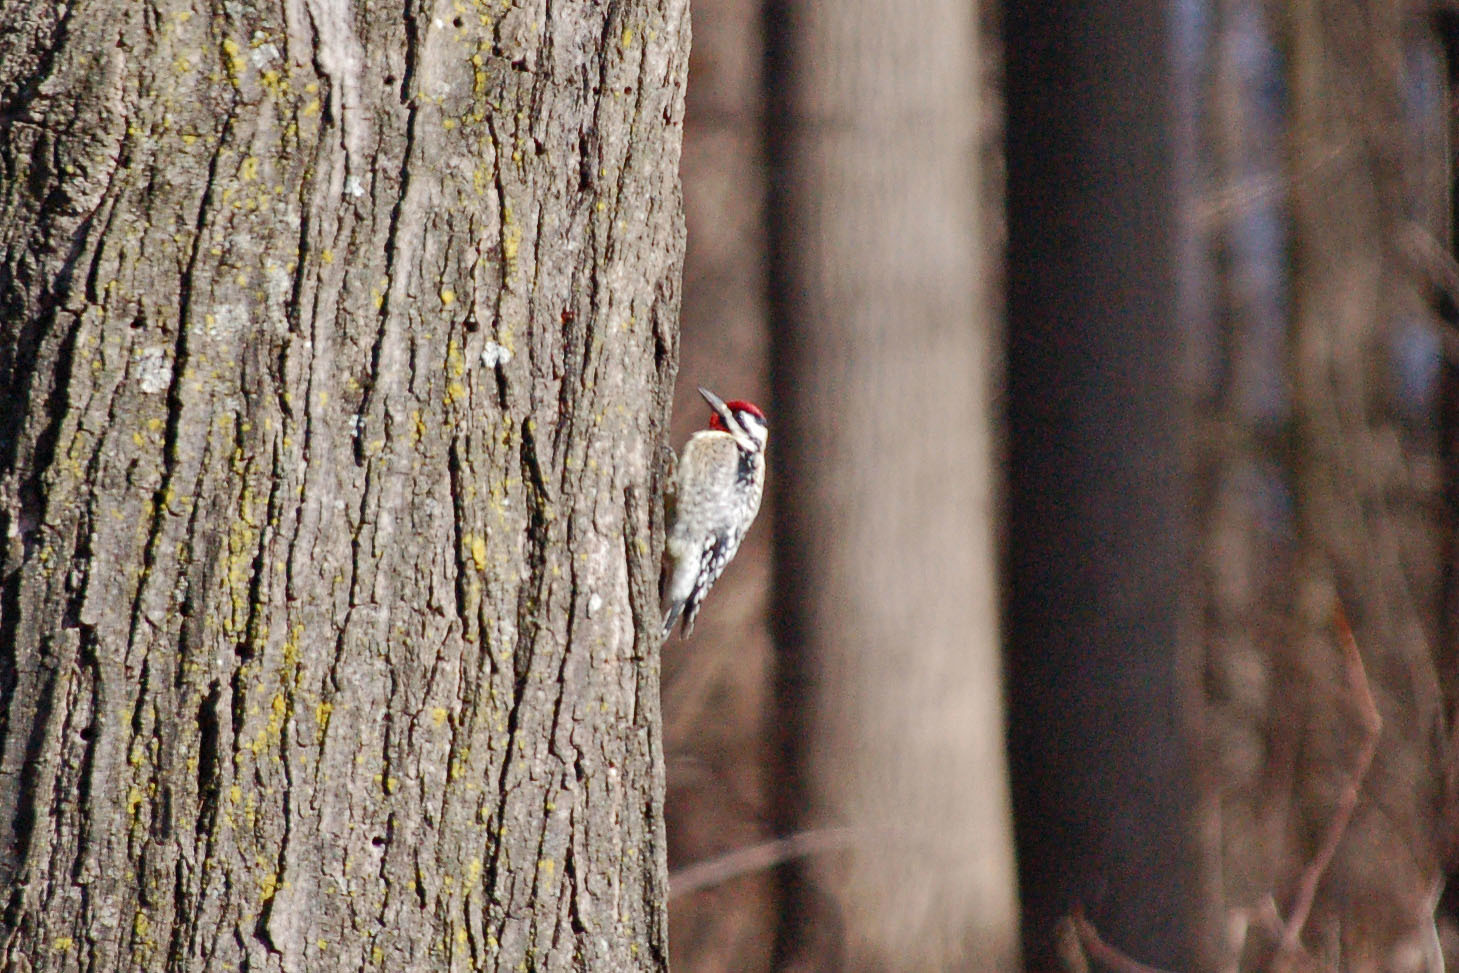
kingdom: Animalia
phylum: Chordata
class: Aves
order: Piciformes
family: Picidae
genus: Sphyrapicus
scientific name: Sphyrapicus varius
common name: Yellow-bellied sapsucker
